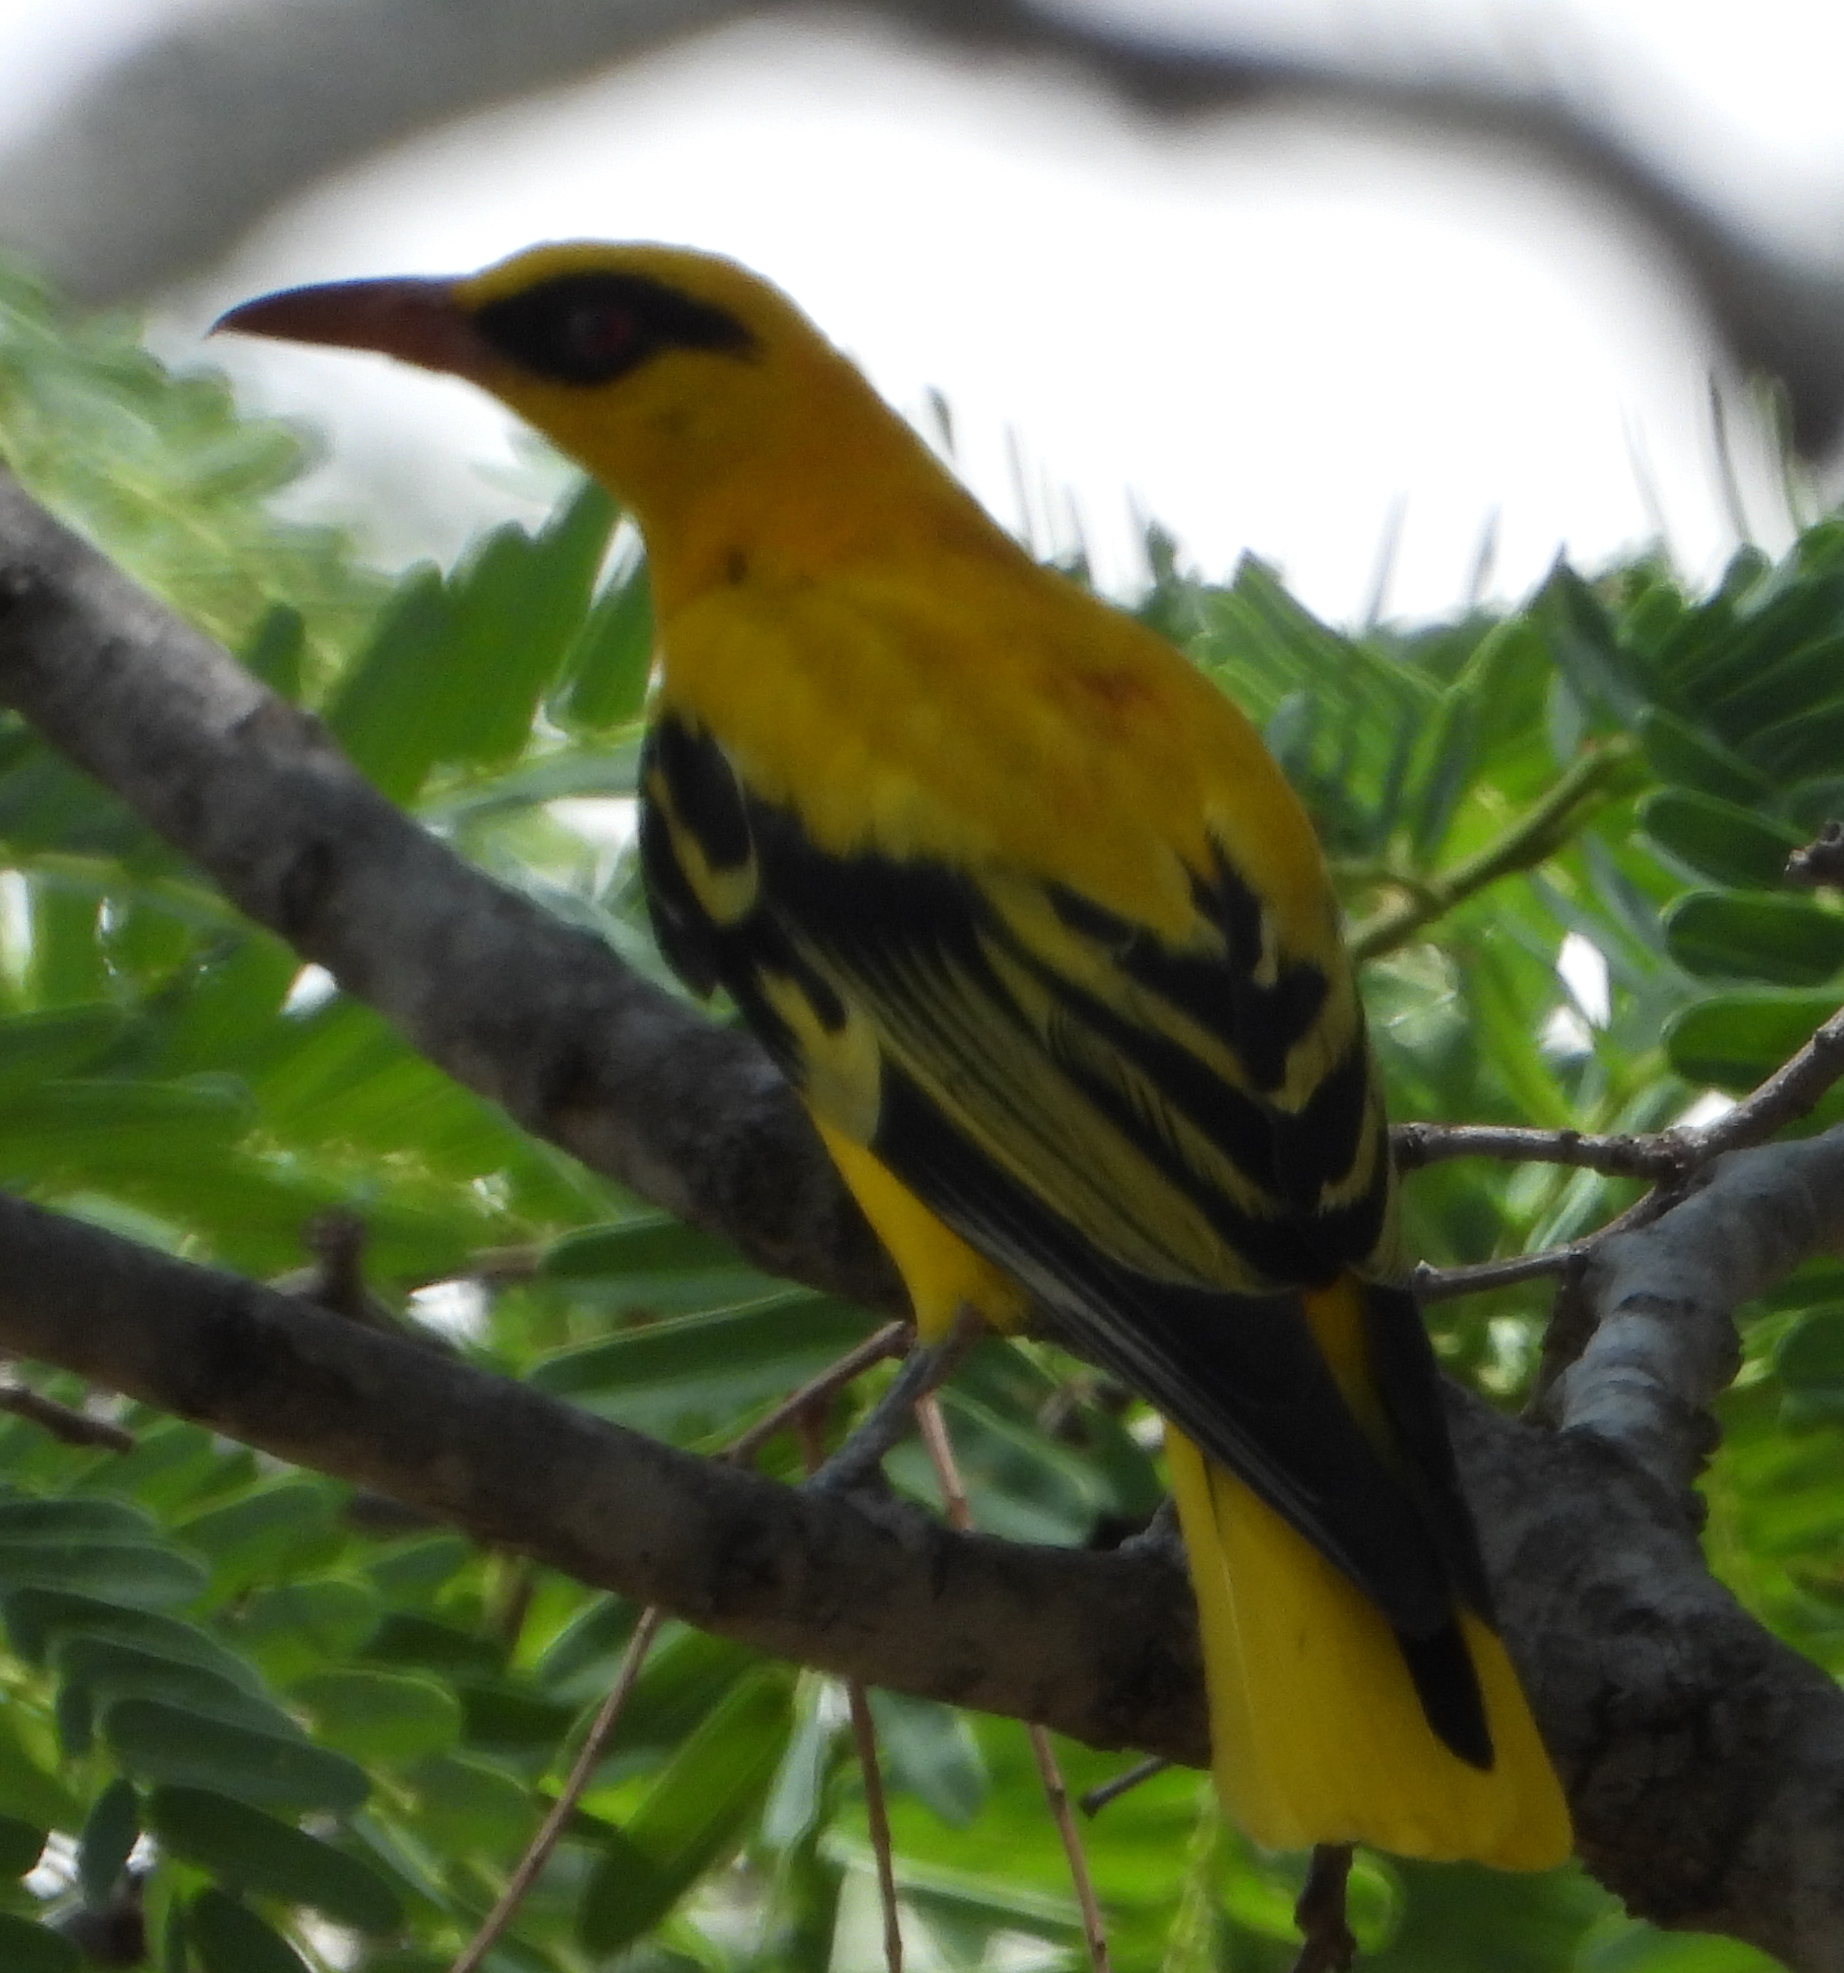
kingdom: Animalia
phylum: Chordata
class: Aves
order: Passeriformes
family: Oriolidae
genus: Oriolus
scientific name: Oriolus auratus
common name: African golden oriole
